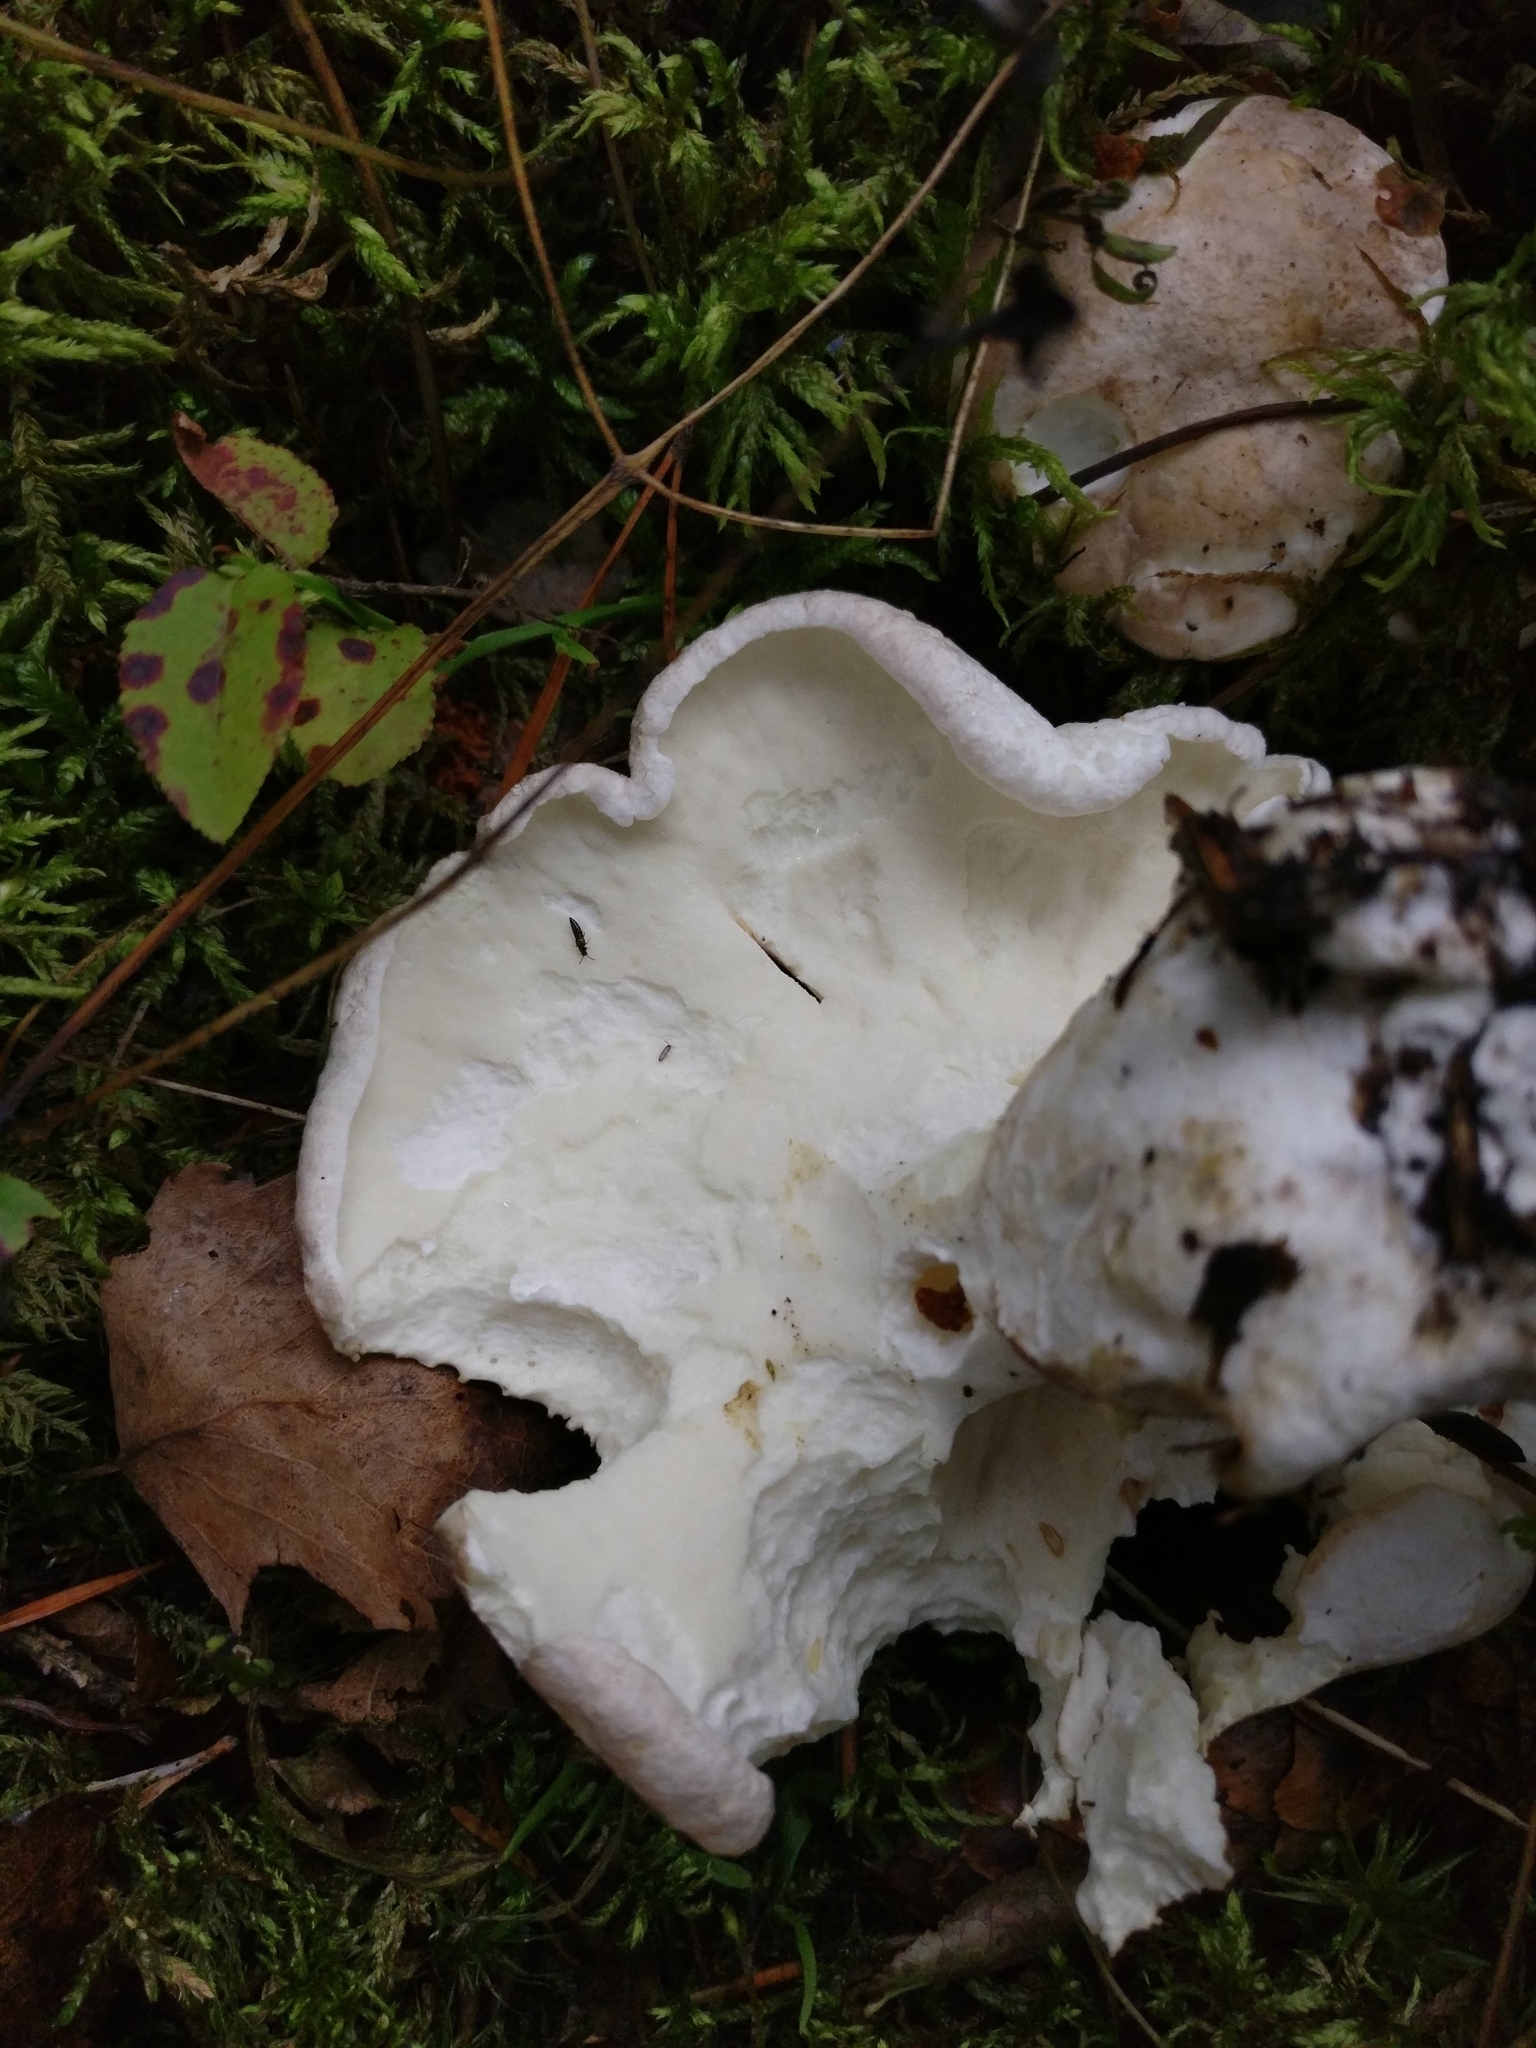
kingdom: Fungi
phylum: Basidiomycota
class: Agaricomycetes
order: Russulales
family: Albatrellaceae
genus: Albatrellus
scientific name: Albatrellus ovinus
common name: Forest lamb
